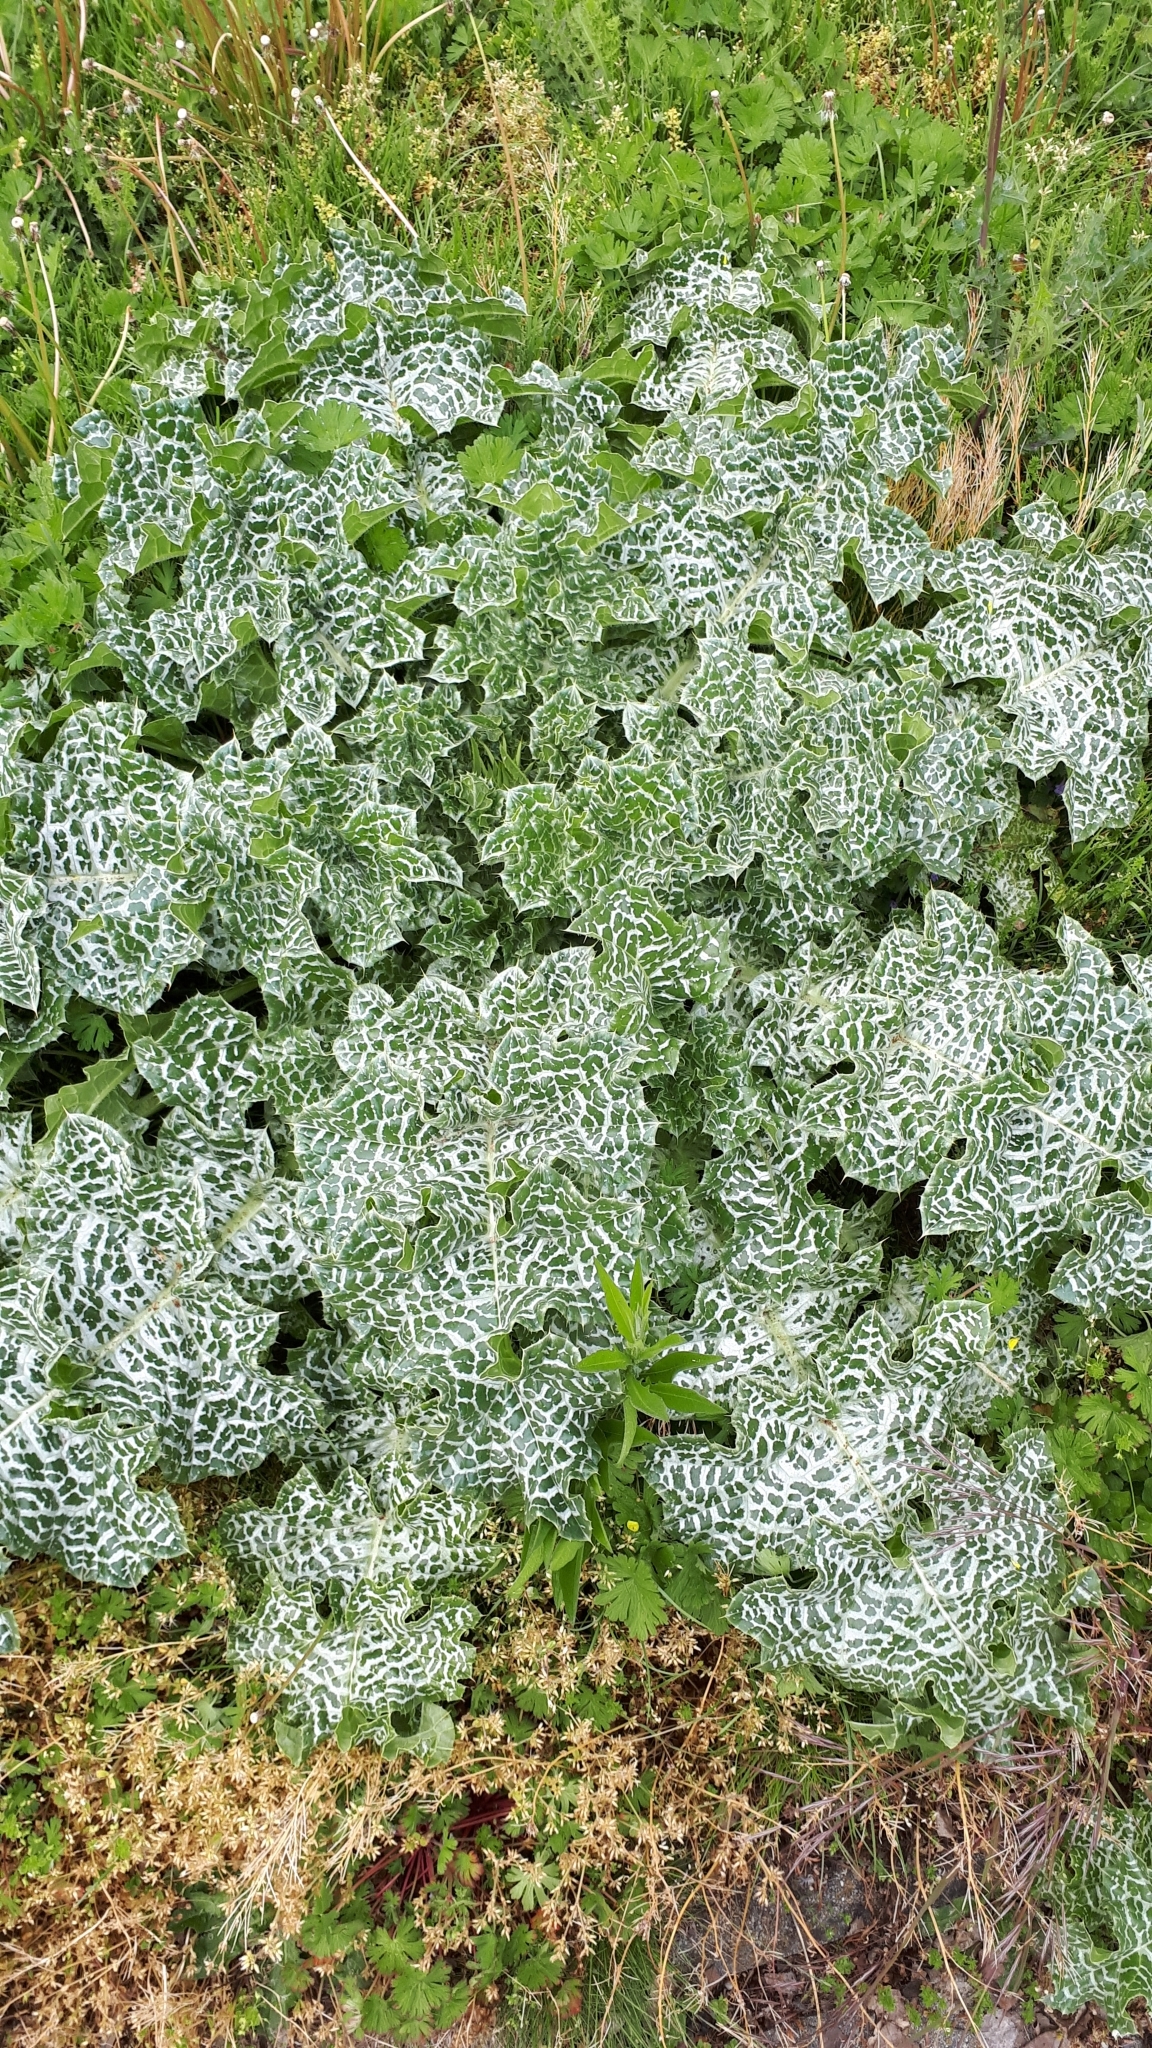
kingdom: Plantae
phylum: Tracheophyta
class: Magnoliopsida
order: Asterales
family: Asteraceae
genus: Silybum
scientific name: Silybum marianum
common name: Milk thistle
